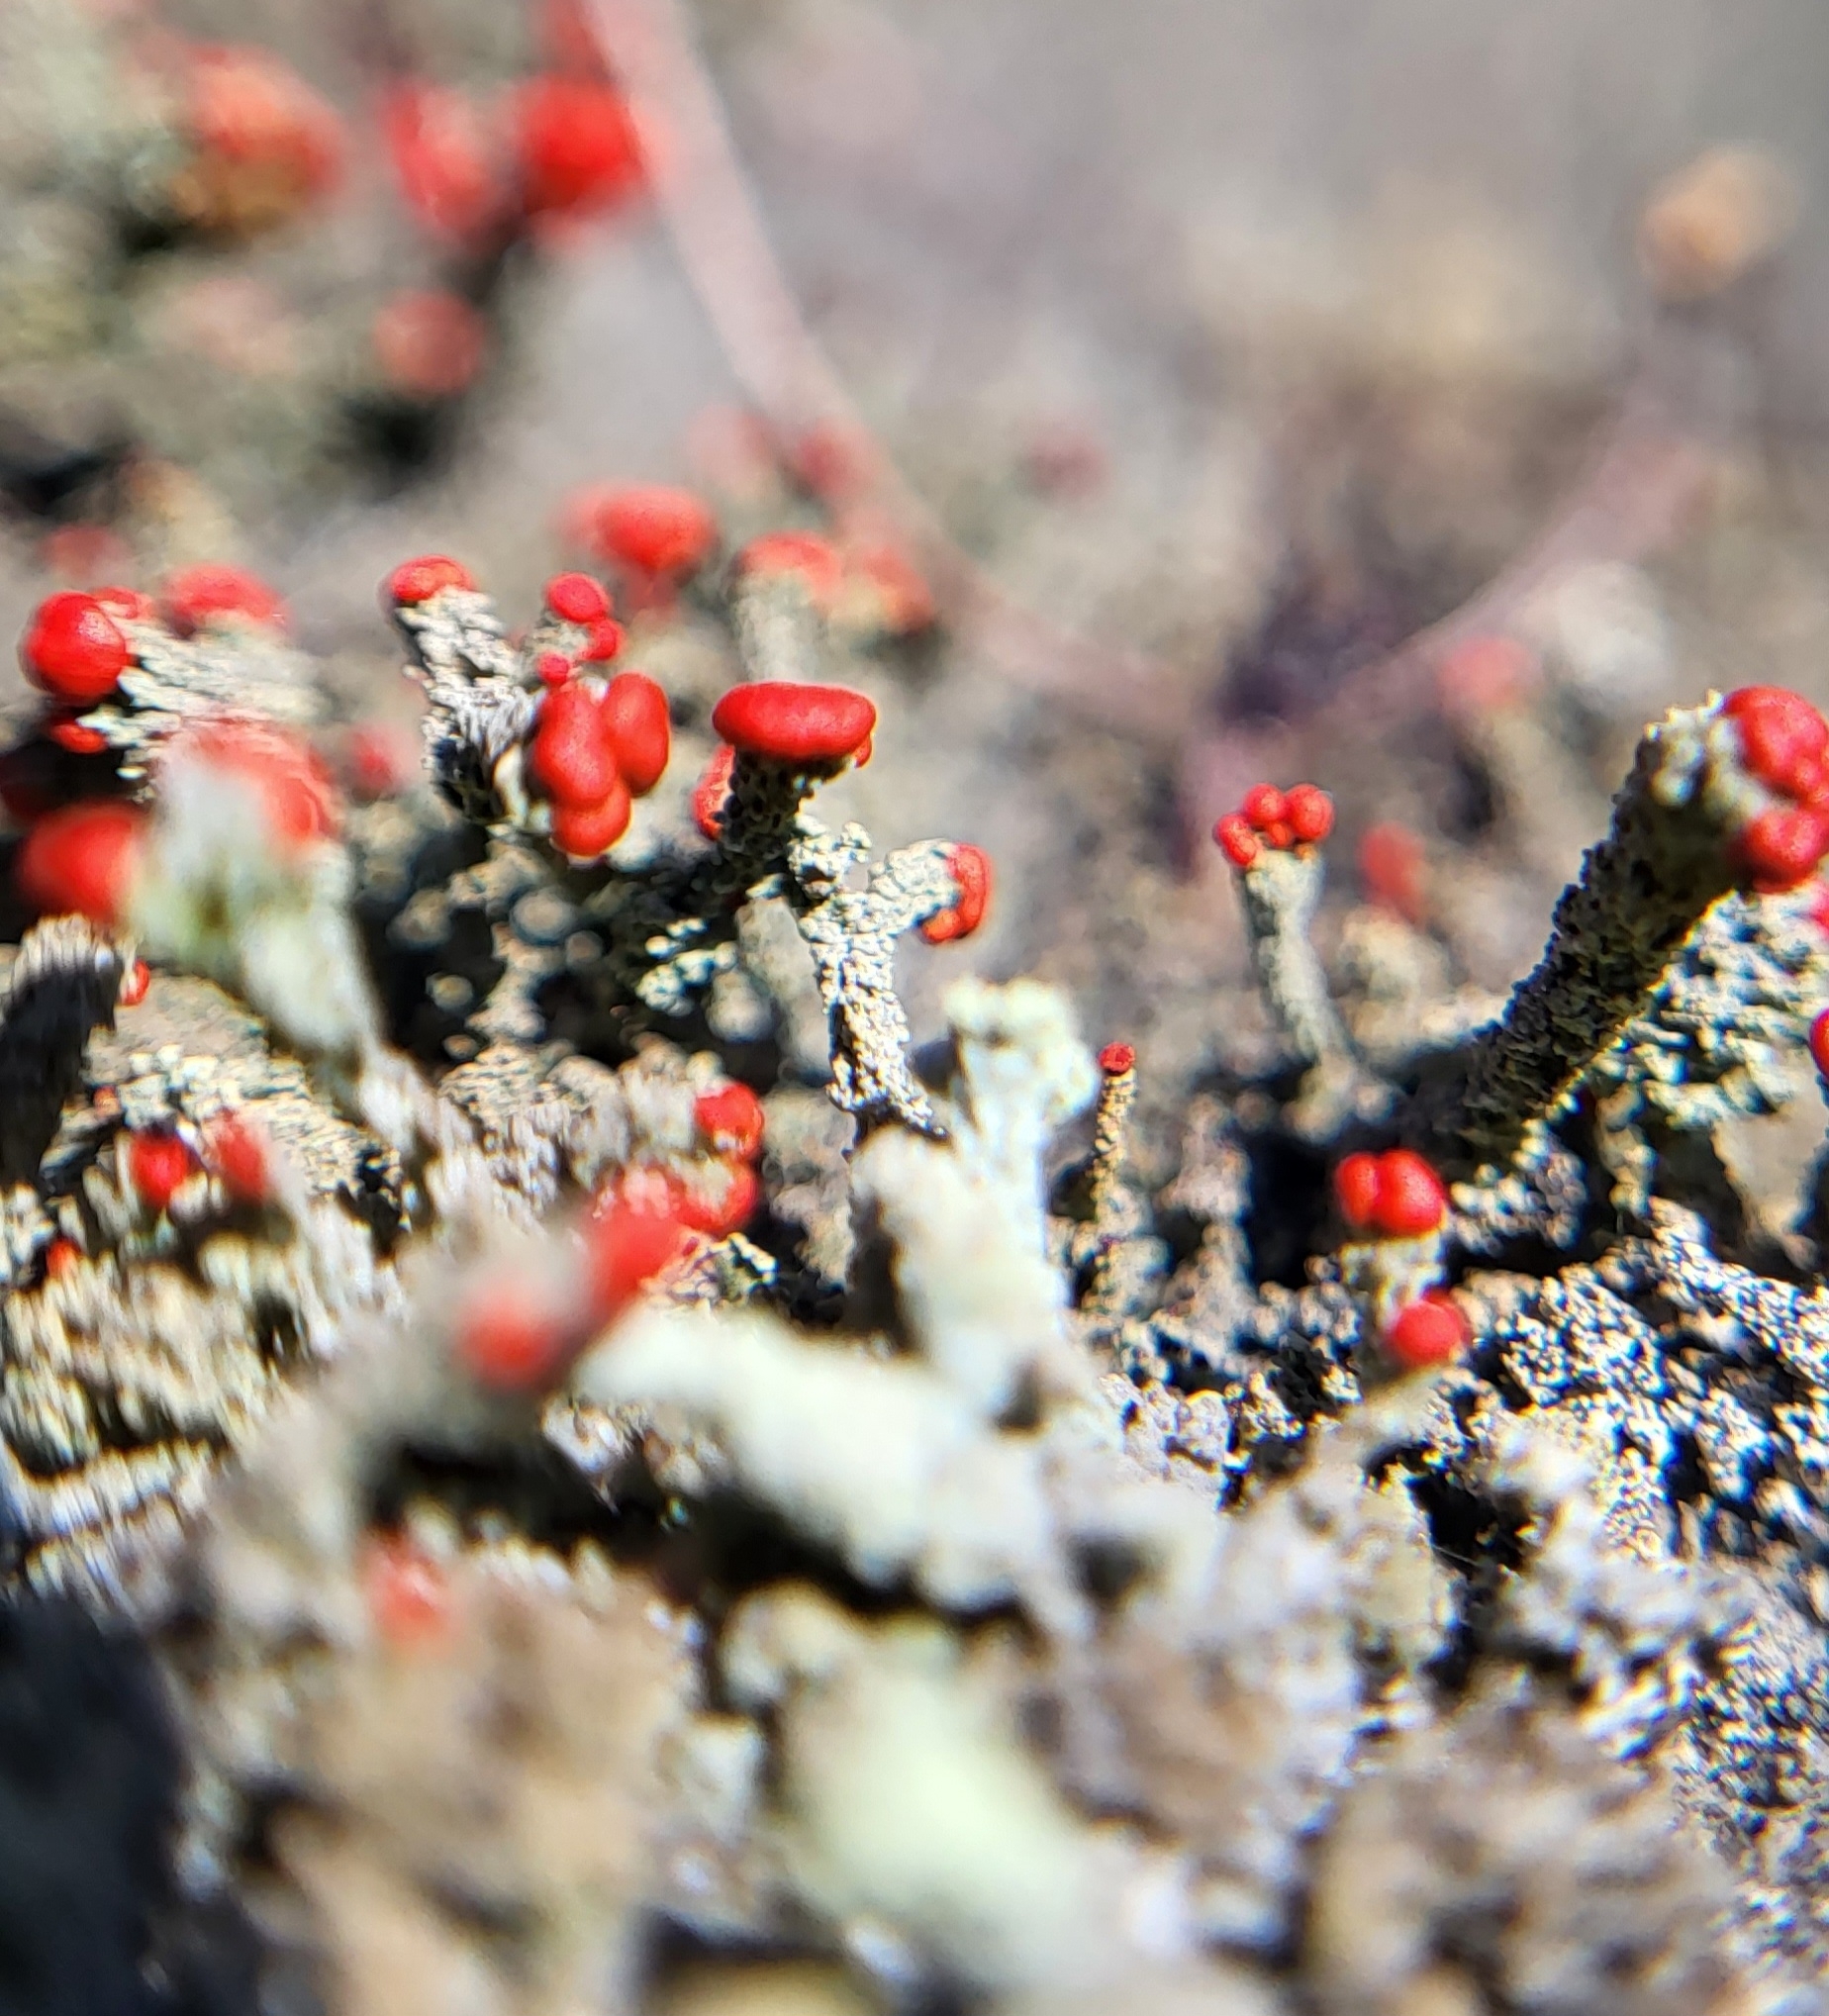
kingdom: Fungi
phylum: Ascomycota
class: Lecanoromycetes
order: Lecanorales
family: Cladoniaceae
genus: Cladonia
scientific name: Cladonia cristatella
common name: British soldier lichen
